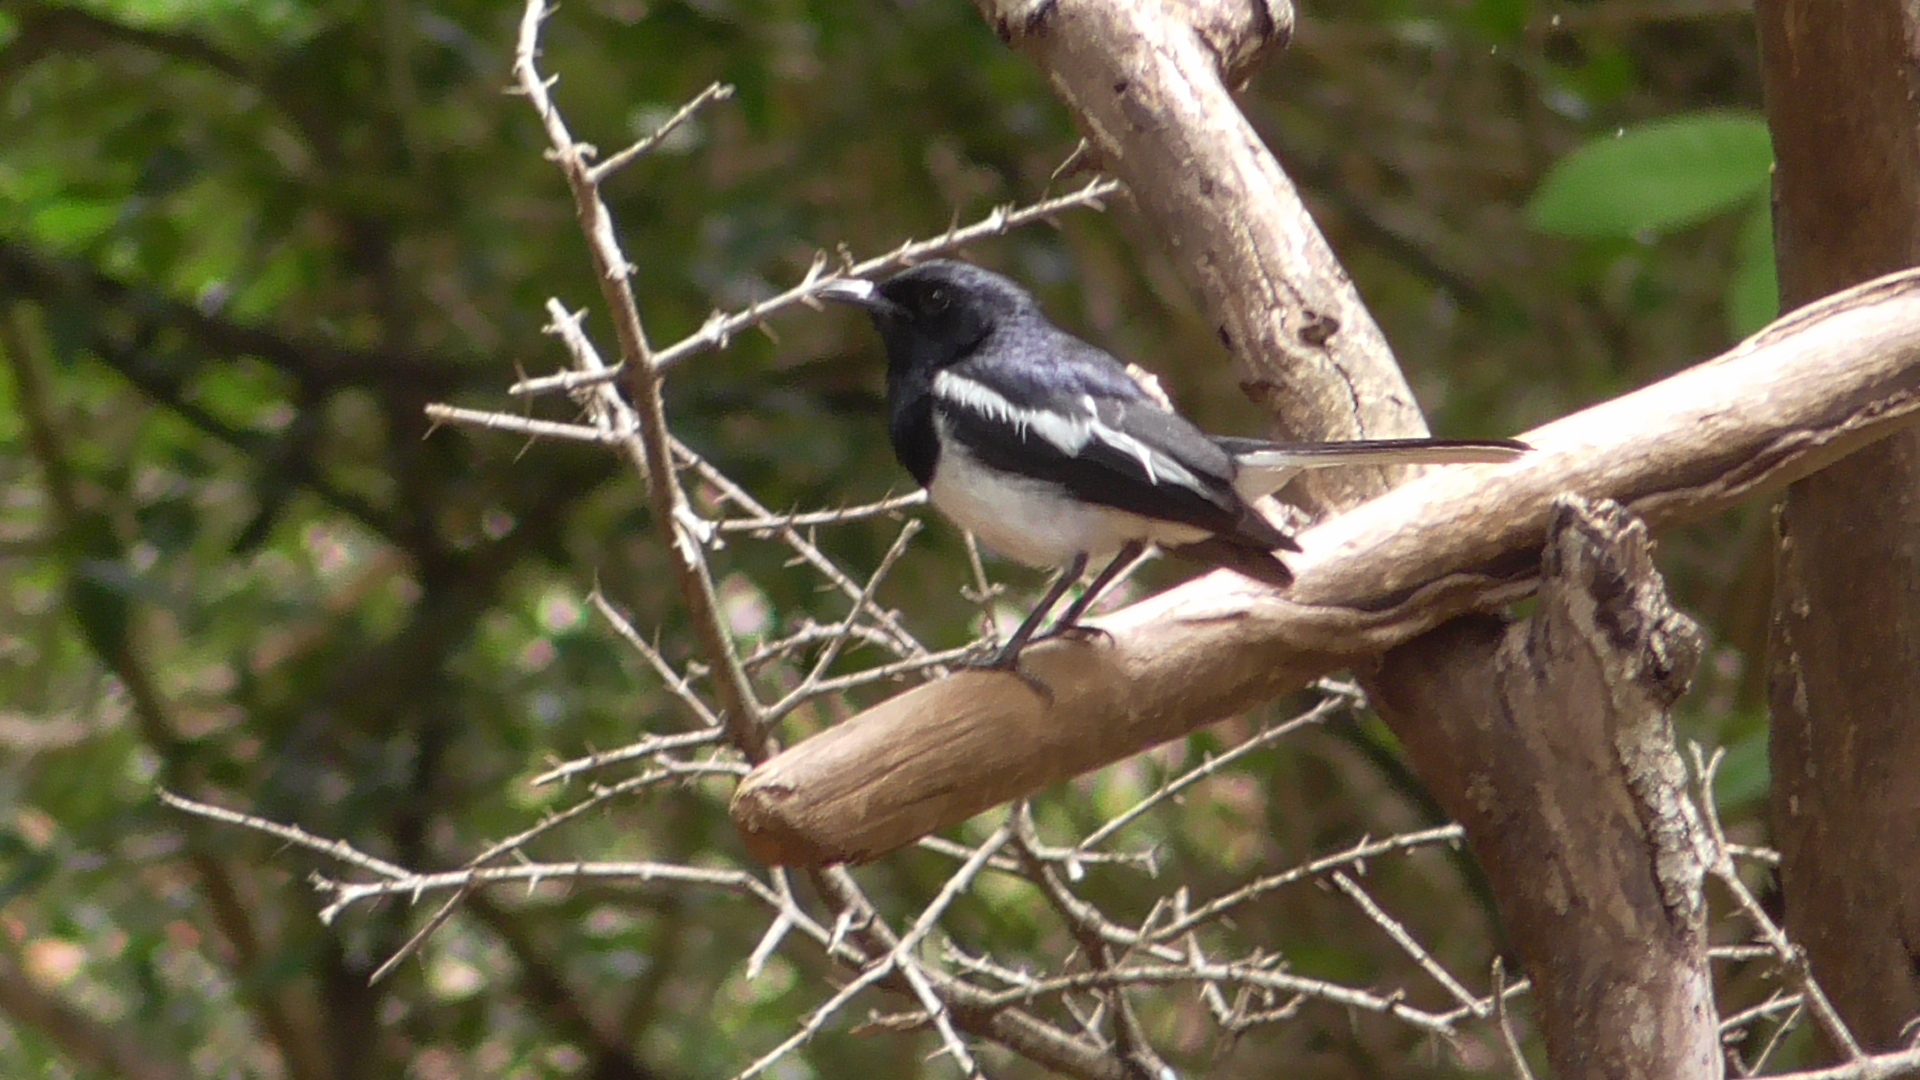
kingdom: Animalia
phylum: Chordata
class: Aves
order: Passeriformes
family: Muscicapidae
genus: Copsychus
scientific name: Copsychus saularis
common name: Oriental magpie-robin
